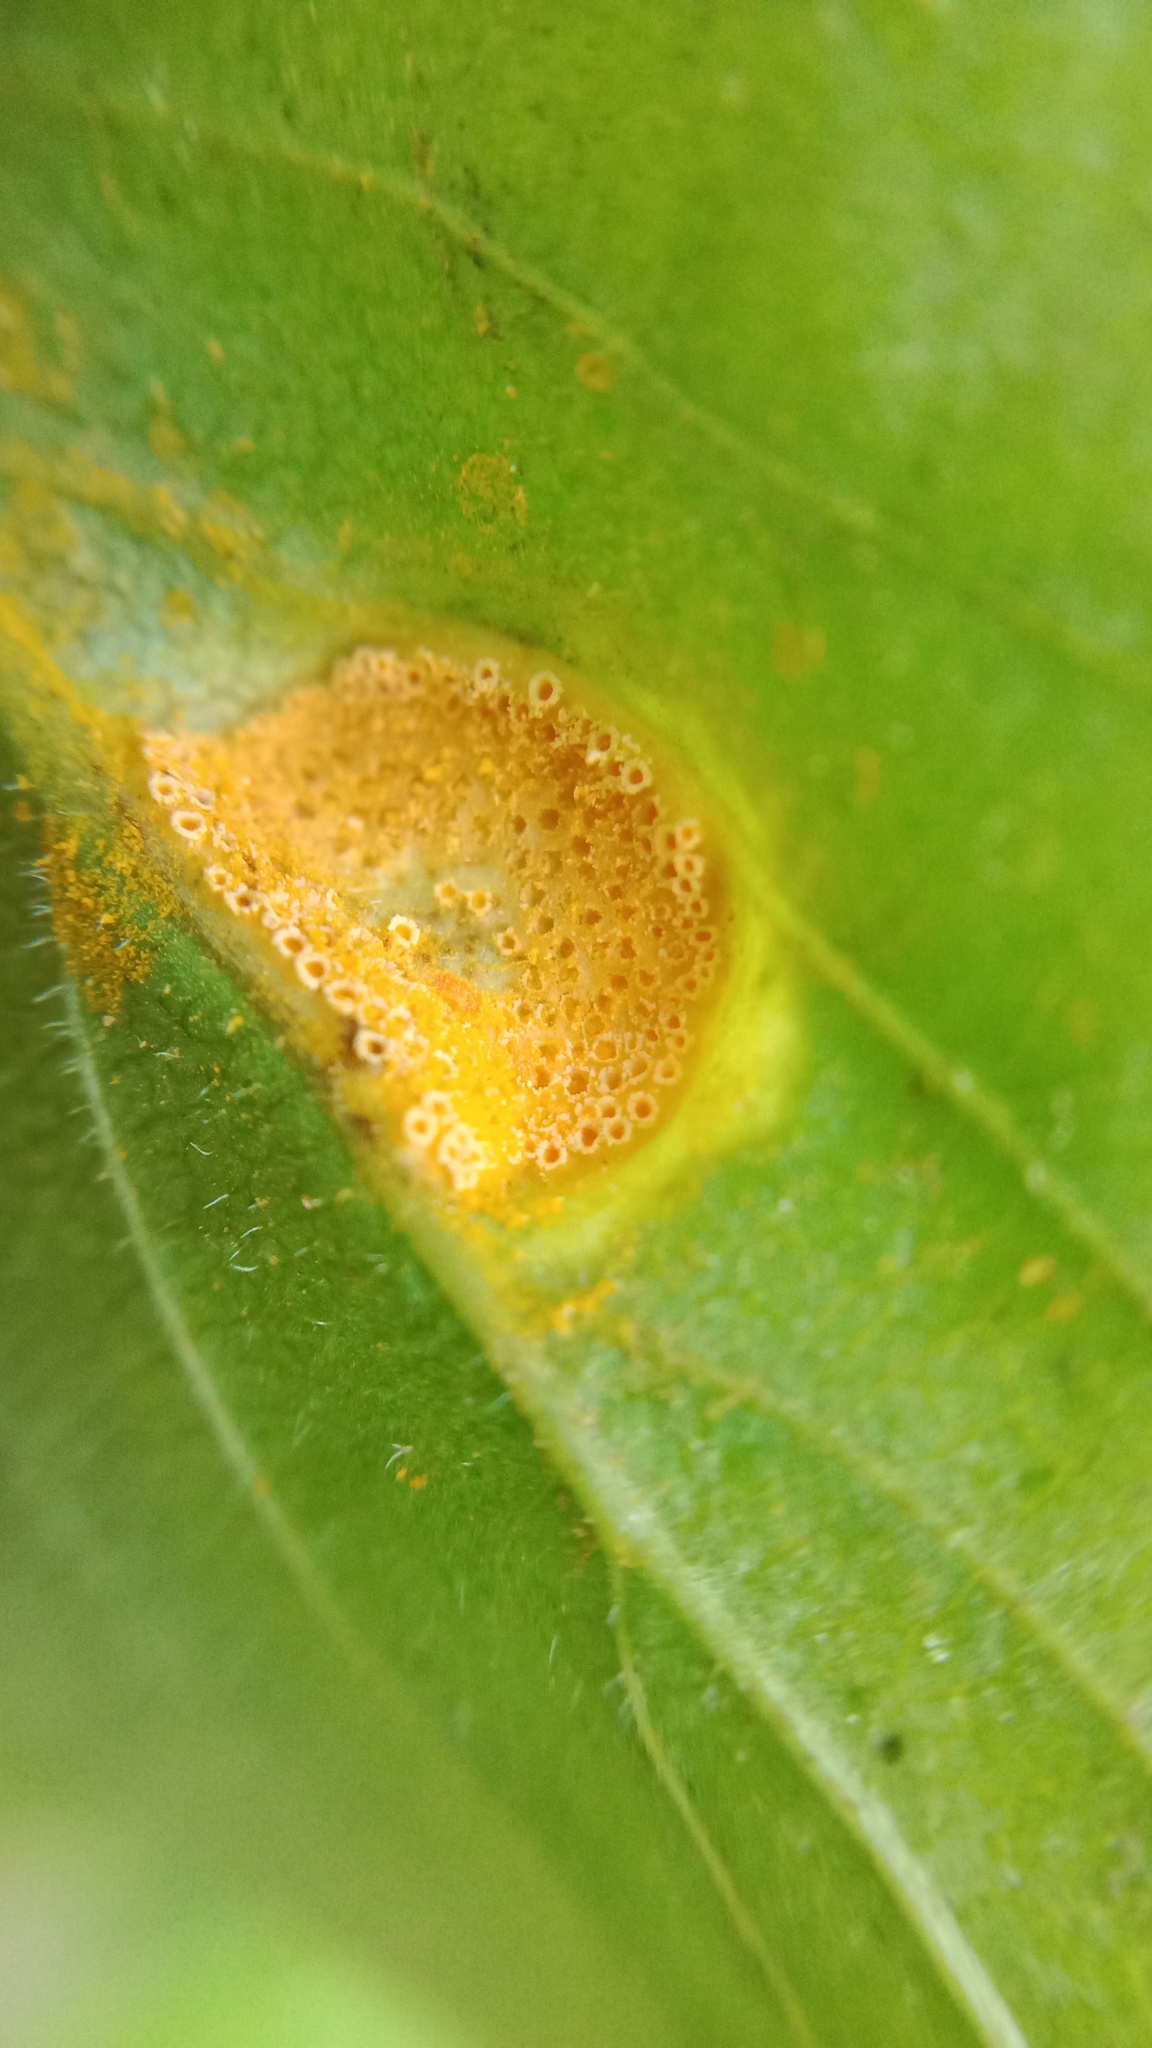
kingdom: Fungi
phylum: Basidiomycota
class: Pucciniomycetes
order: Pucciniales
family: Pucciniaceae
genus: Puccinia
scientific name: Puccinia coronata
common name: Crown rust
